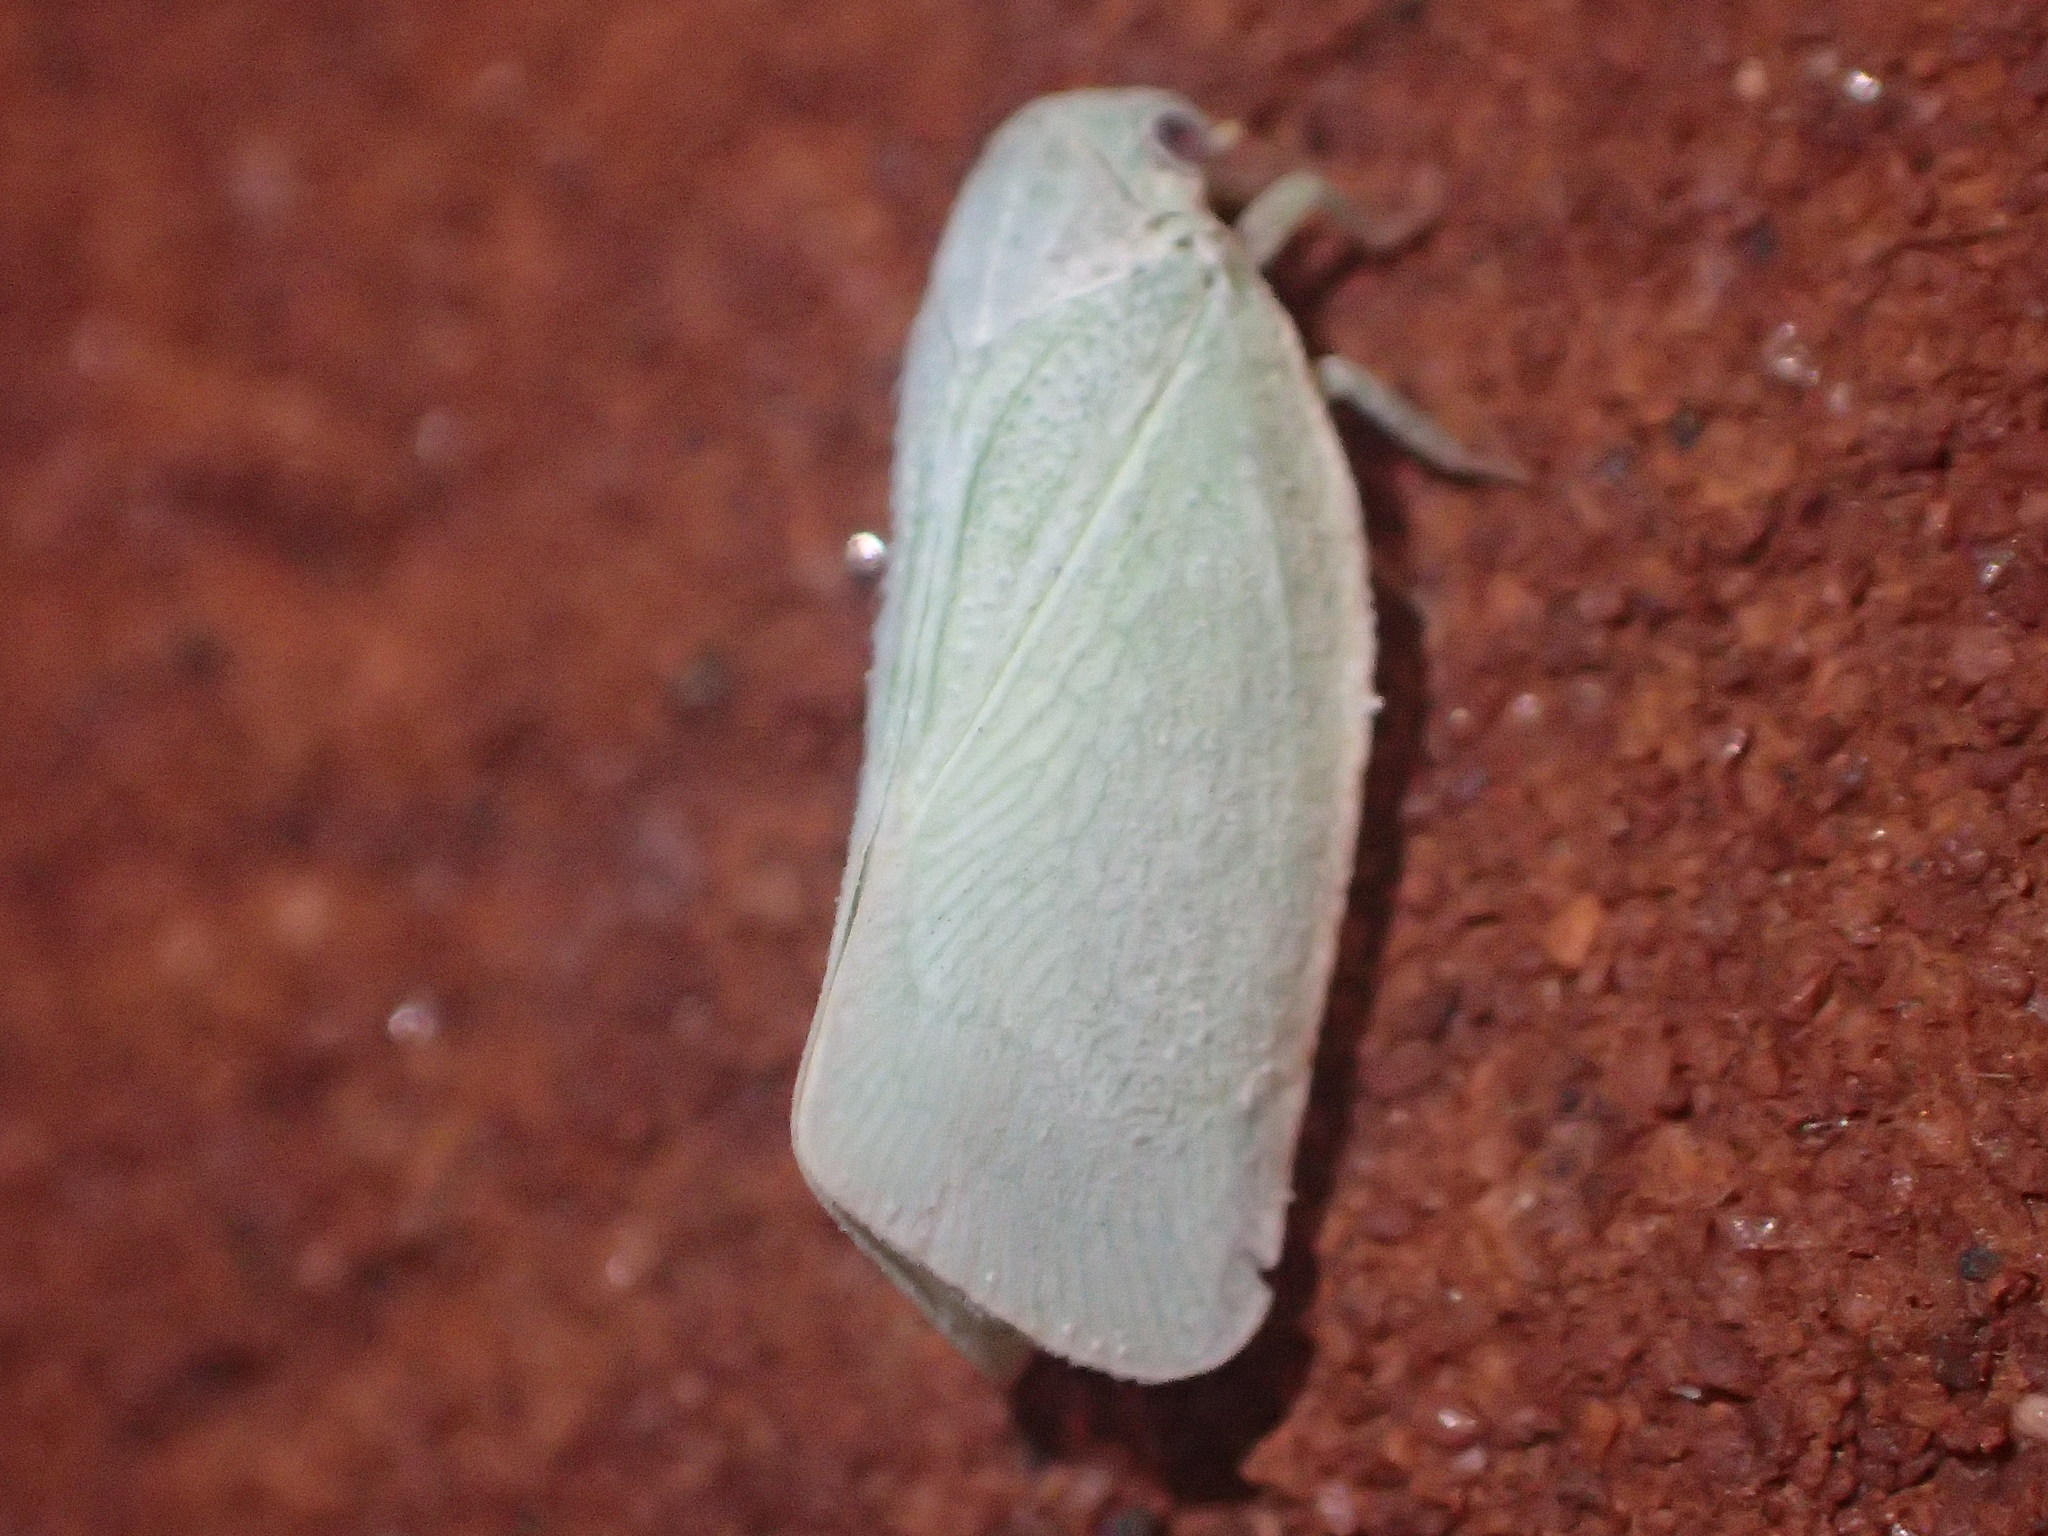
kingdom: Animalia
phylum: Arthropoda
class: Insecta
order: Hemiptera
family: Flatidae
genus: Flatormenis
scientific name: Flatormenis proxima
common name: Northern flatid planthopper
